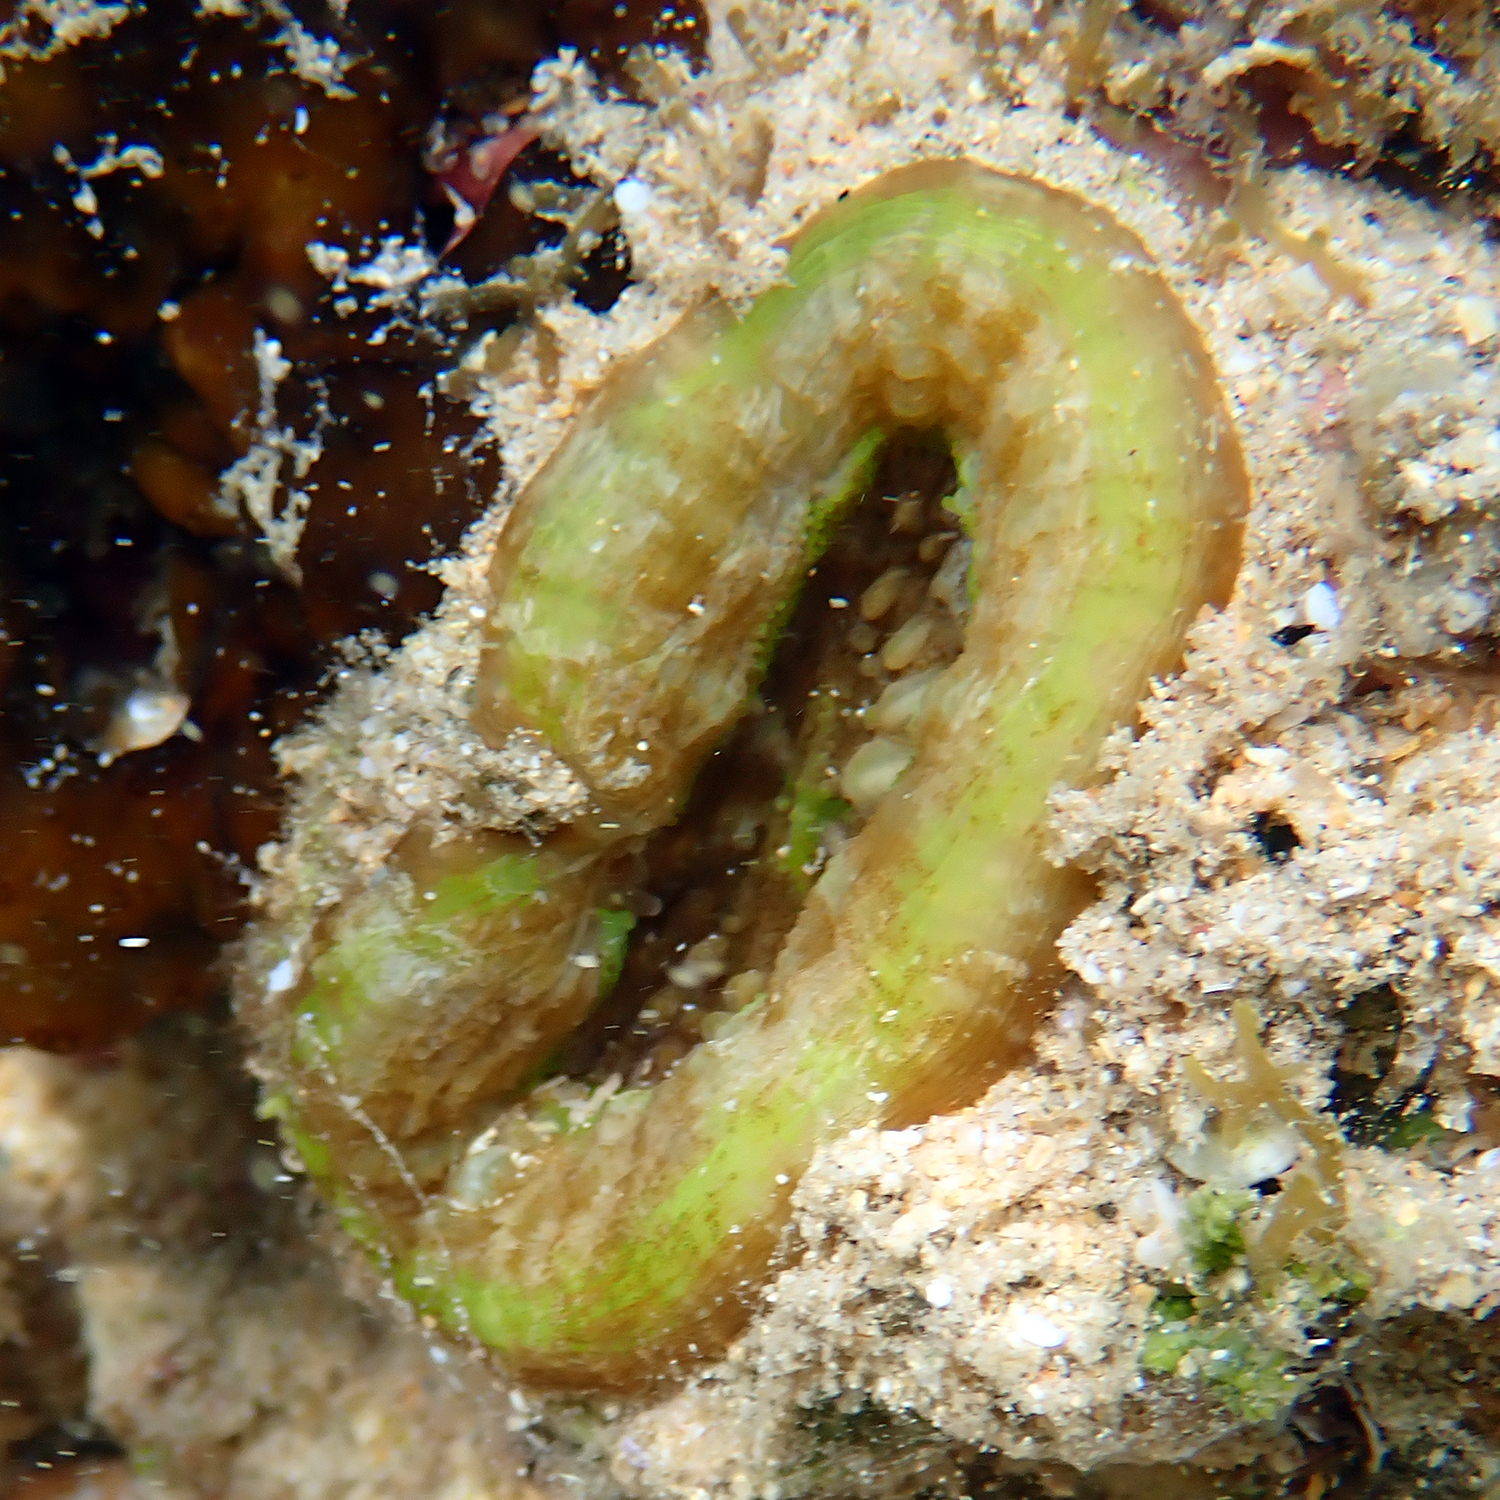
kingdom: Animalia
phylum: Cnidaria
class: Anthozoa
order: Scleractinia
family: Lobophylliidae
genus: Homophyllia
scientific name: Homophyllia australis
